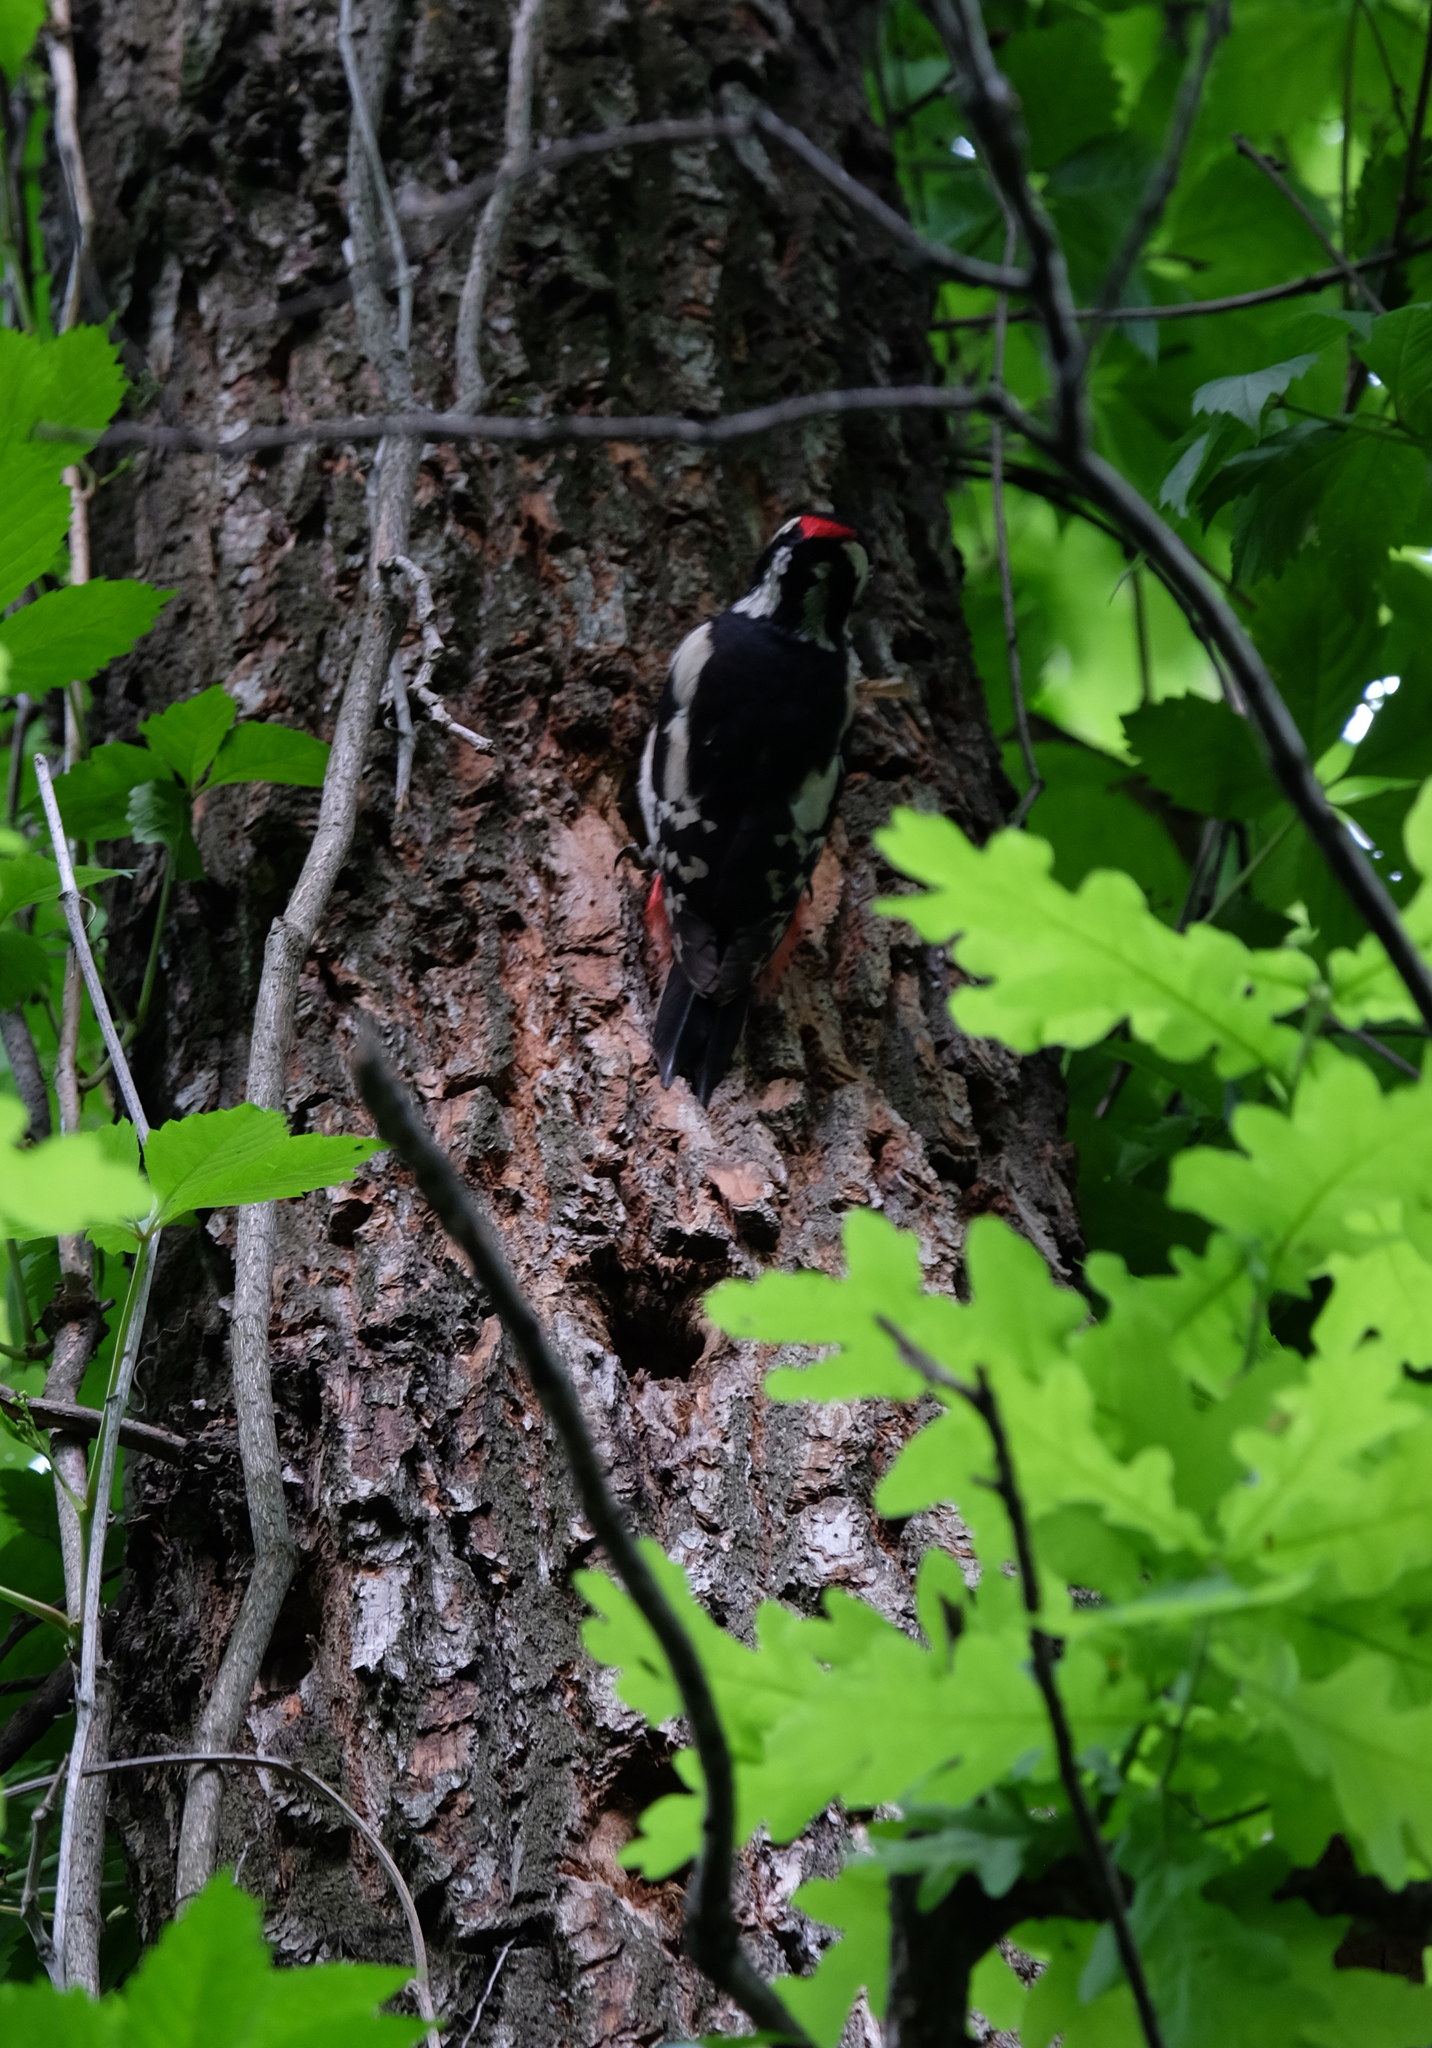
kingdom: Animalia
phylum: Chordata
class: Aves
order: Piciformes
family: Picidae
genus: Dendrocopos
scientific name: Dendrocopos major
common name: Great spotted woodpecker
